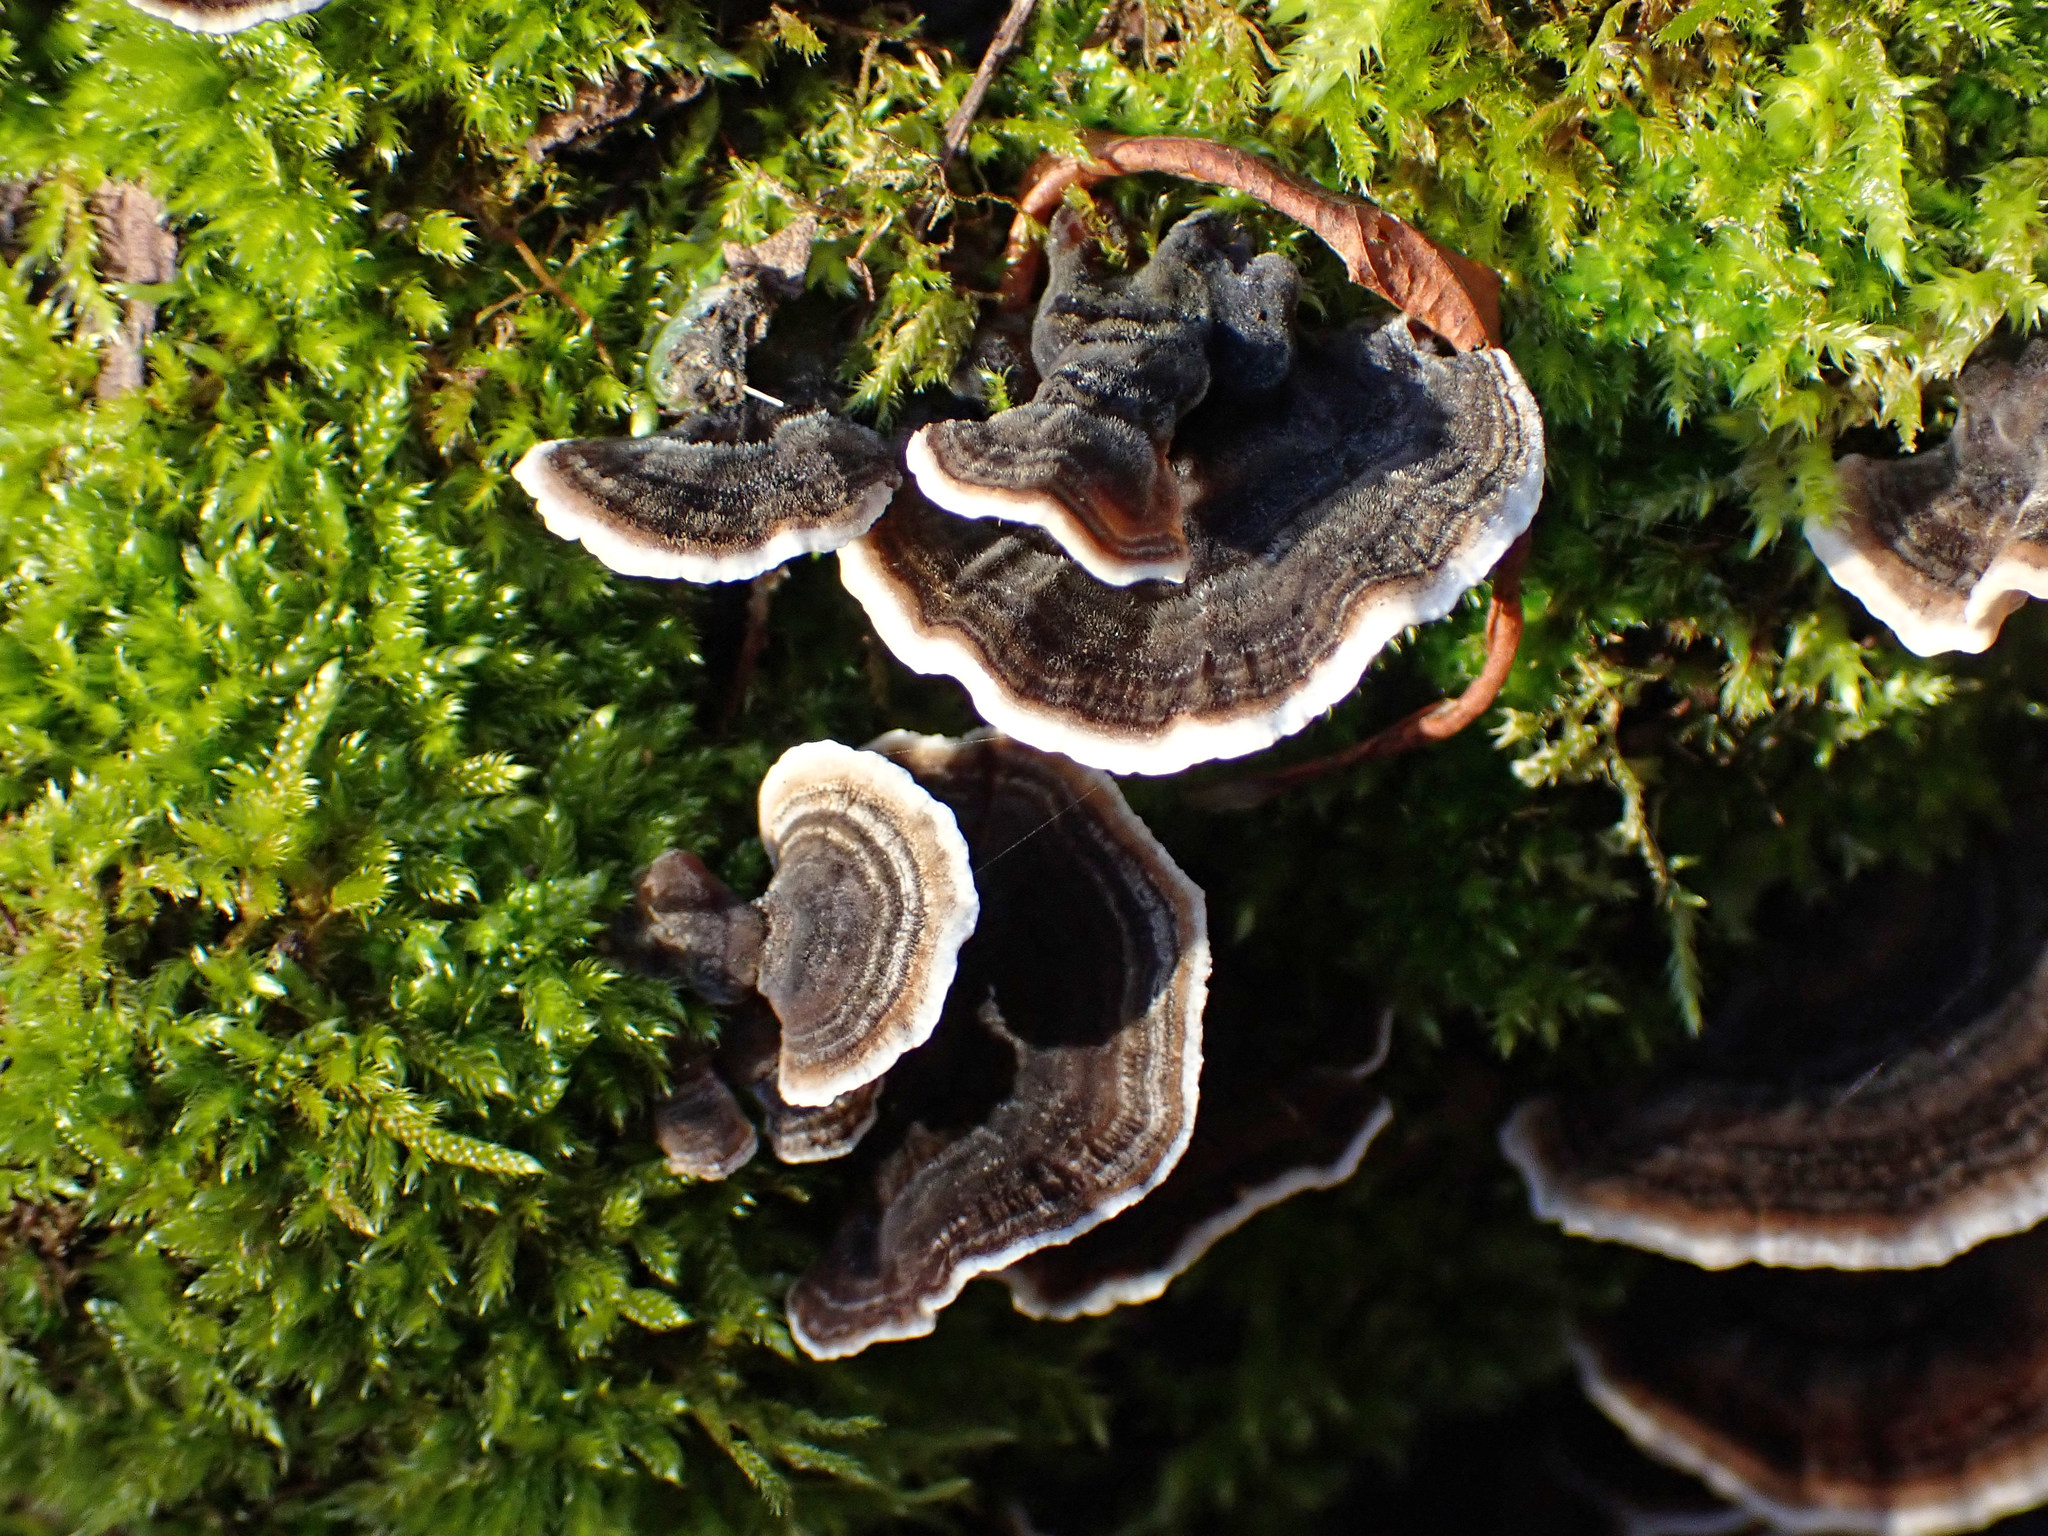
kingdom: Fungi
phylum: Basidiomycota
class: Agaricomycetes
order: Polyporales
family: Polyporaceae
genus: Trametes
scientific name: Trametes versicolor
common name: Turkeytail
